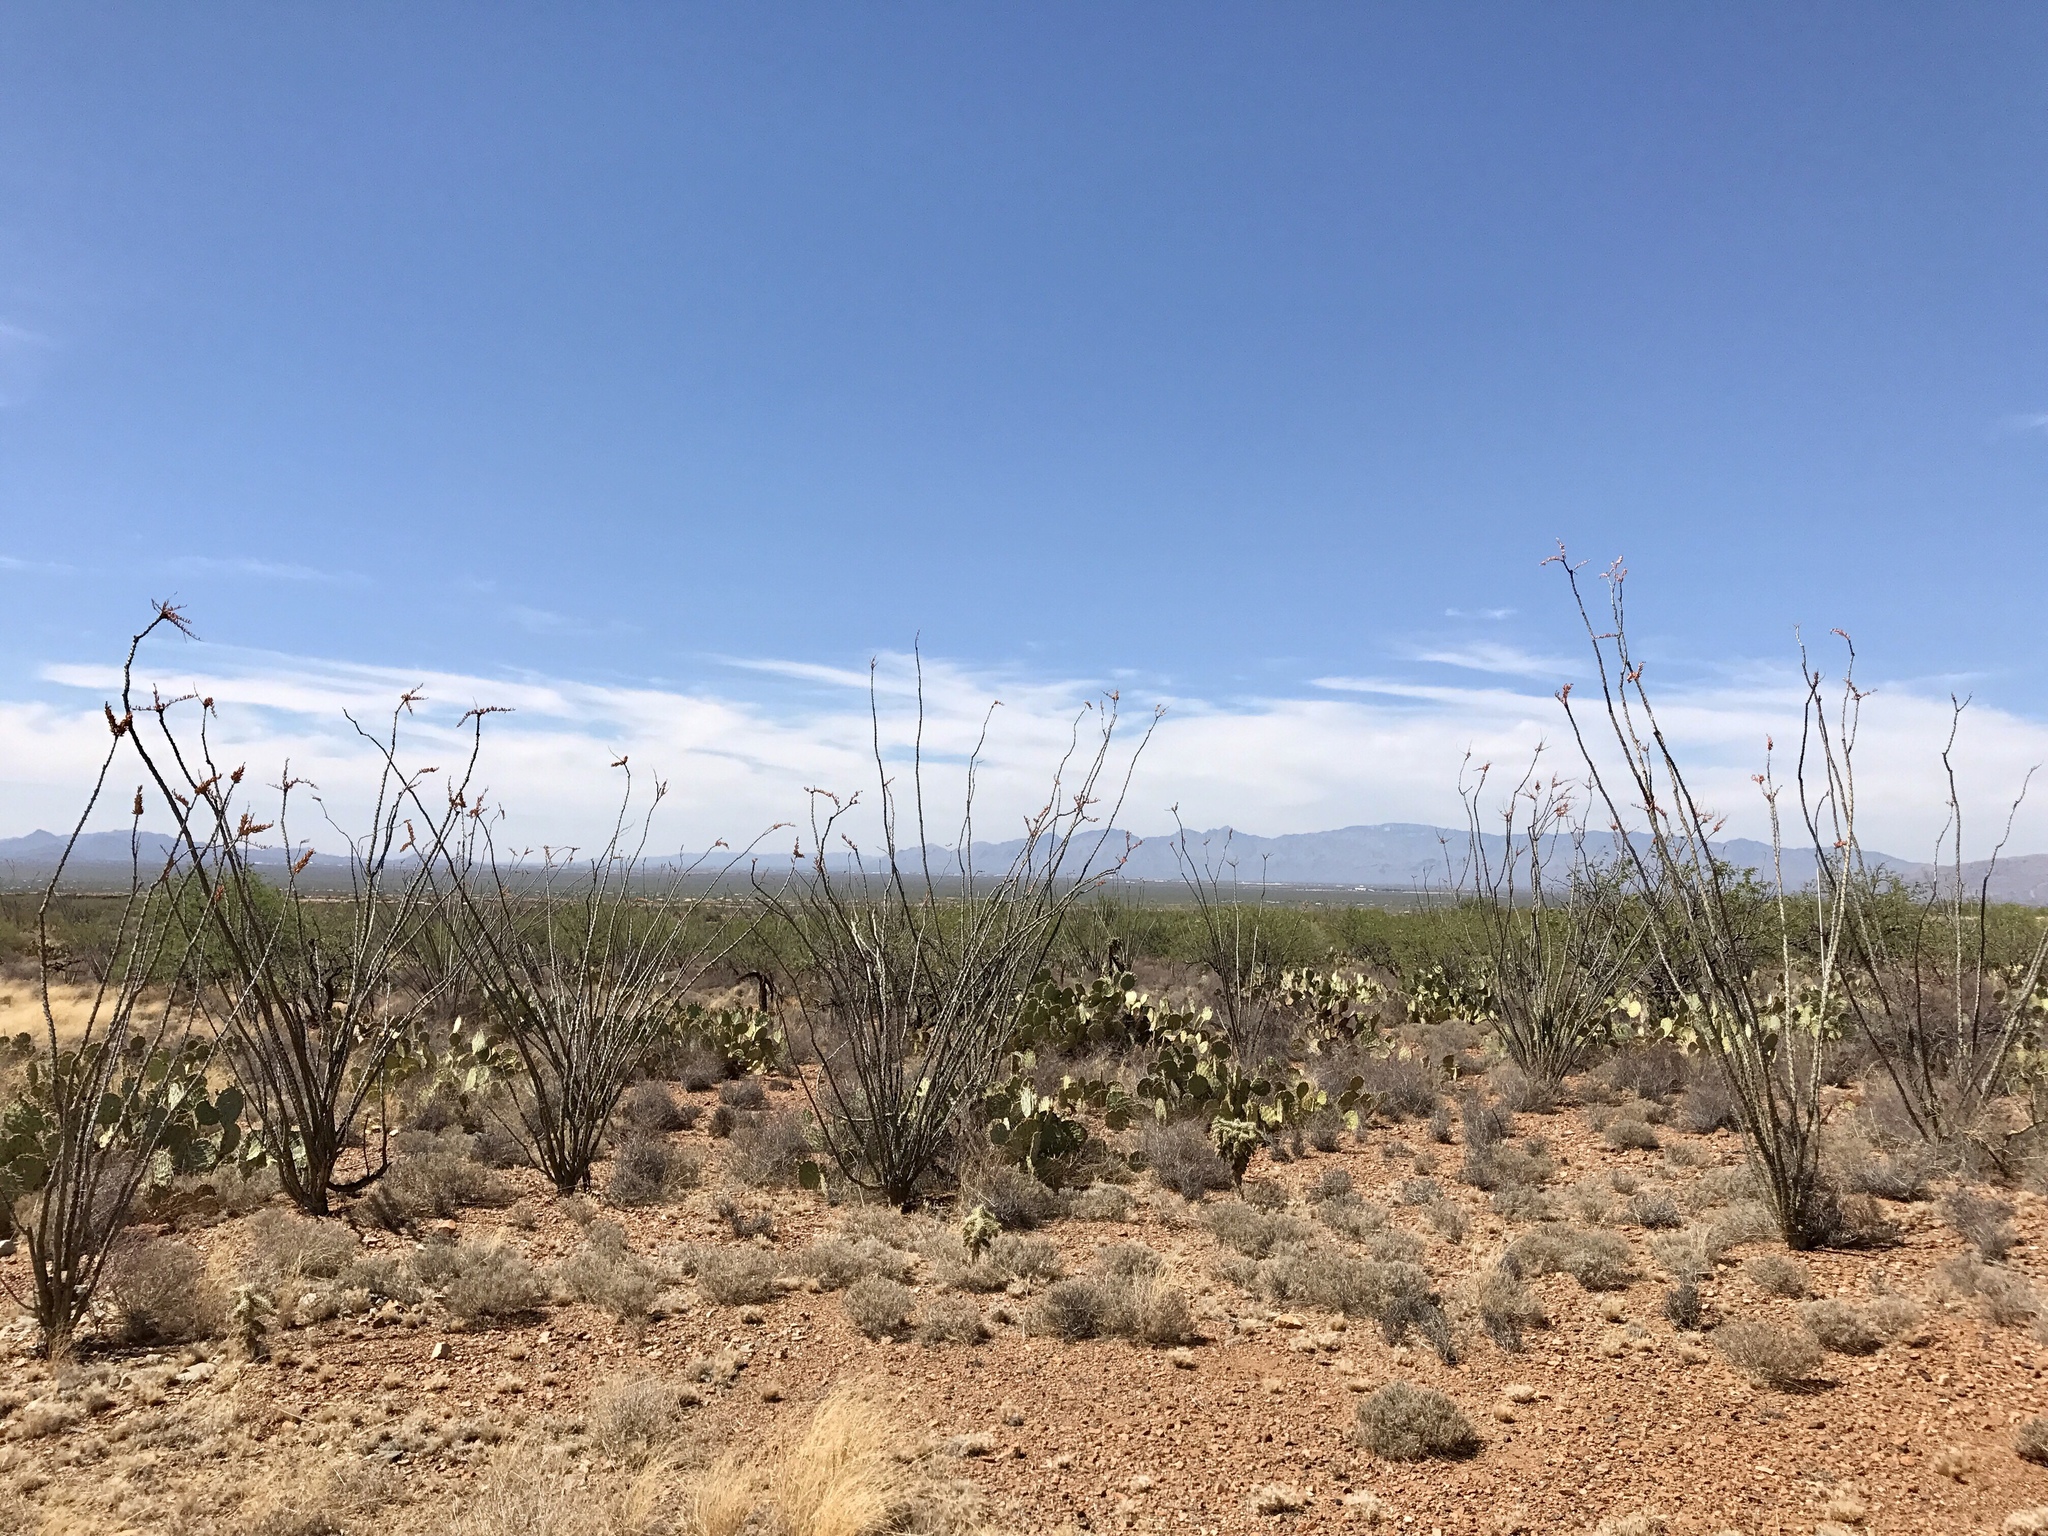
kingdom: Plantae
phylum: Tracheophyta
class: Magnoliopsida
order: Ericales
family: Fouquieriaceae
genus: Fouquieria
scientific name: Fouquieria splendens
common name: Vine-cactus
